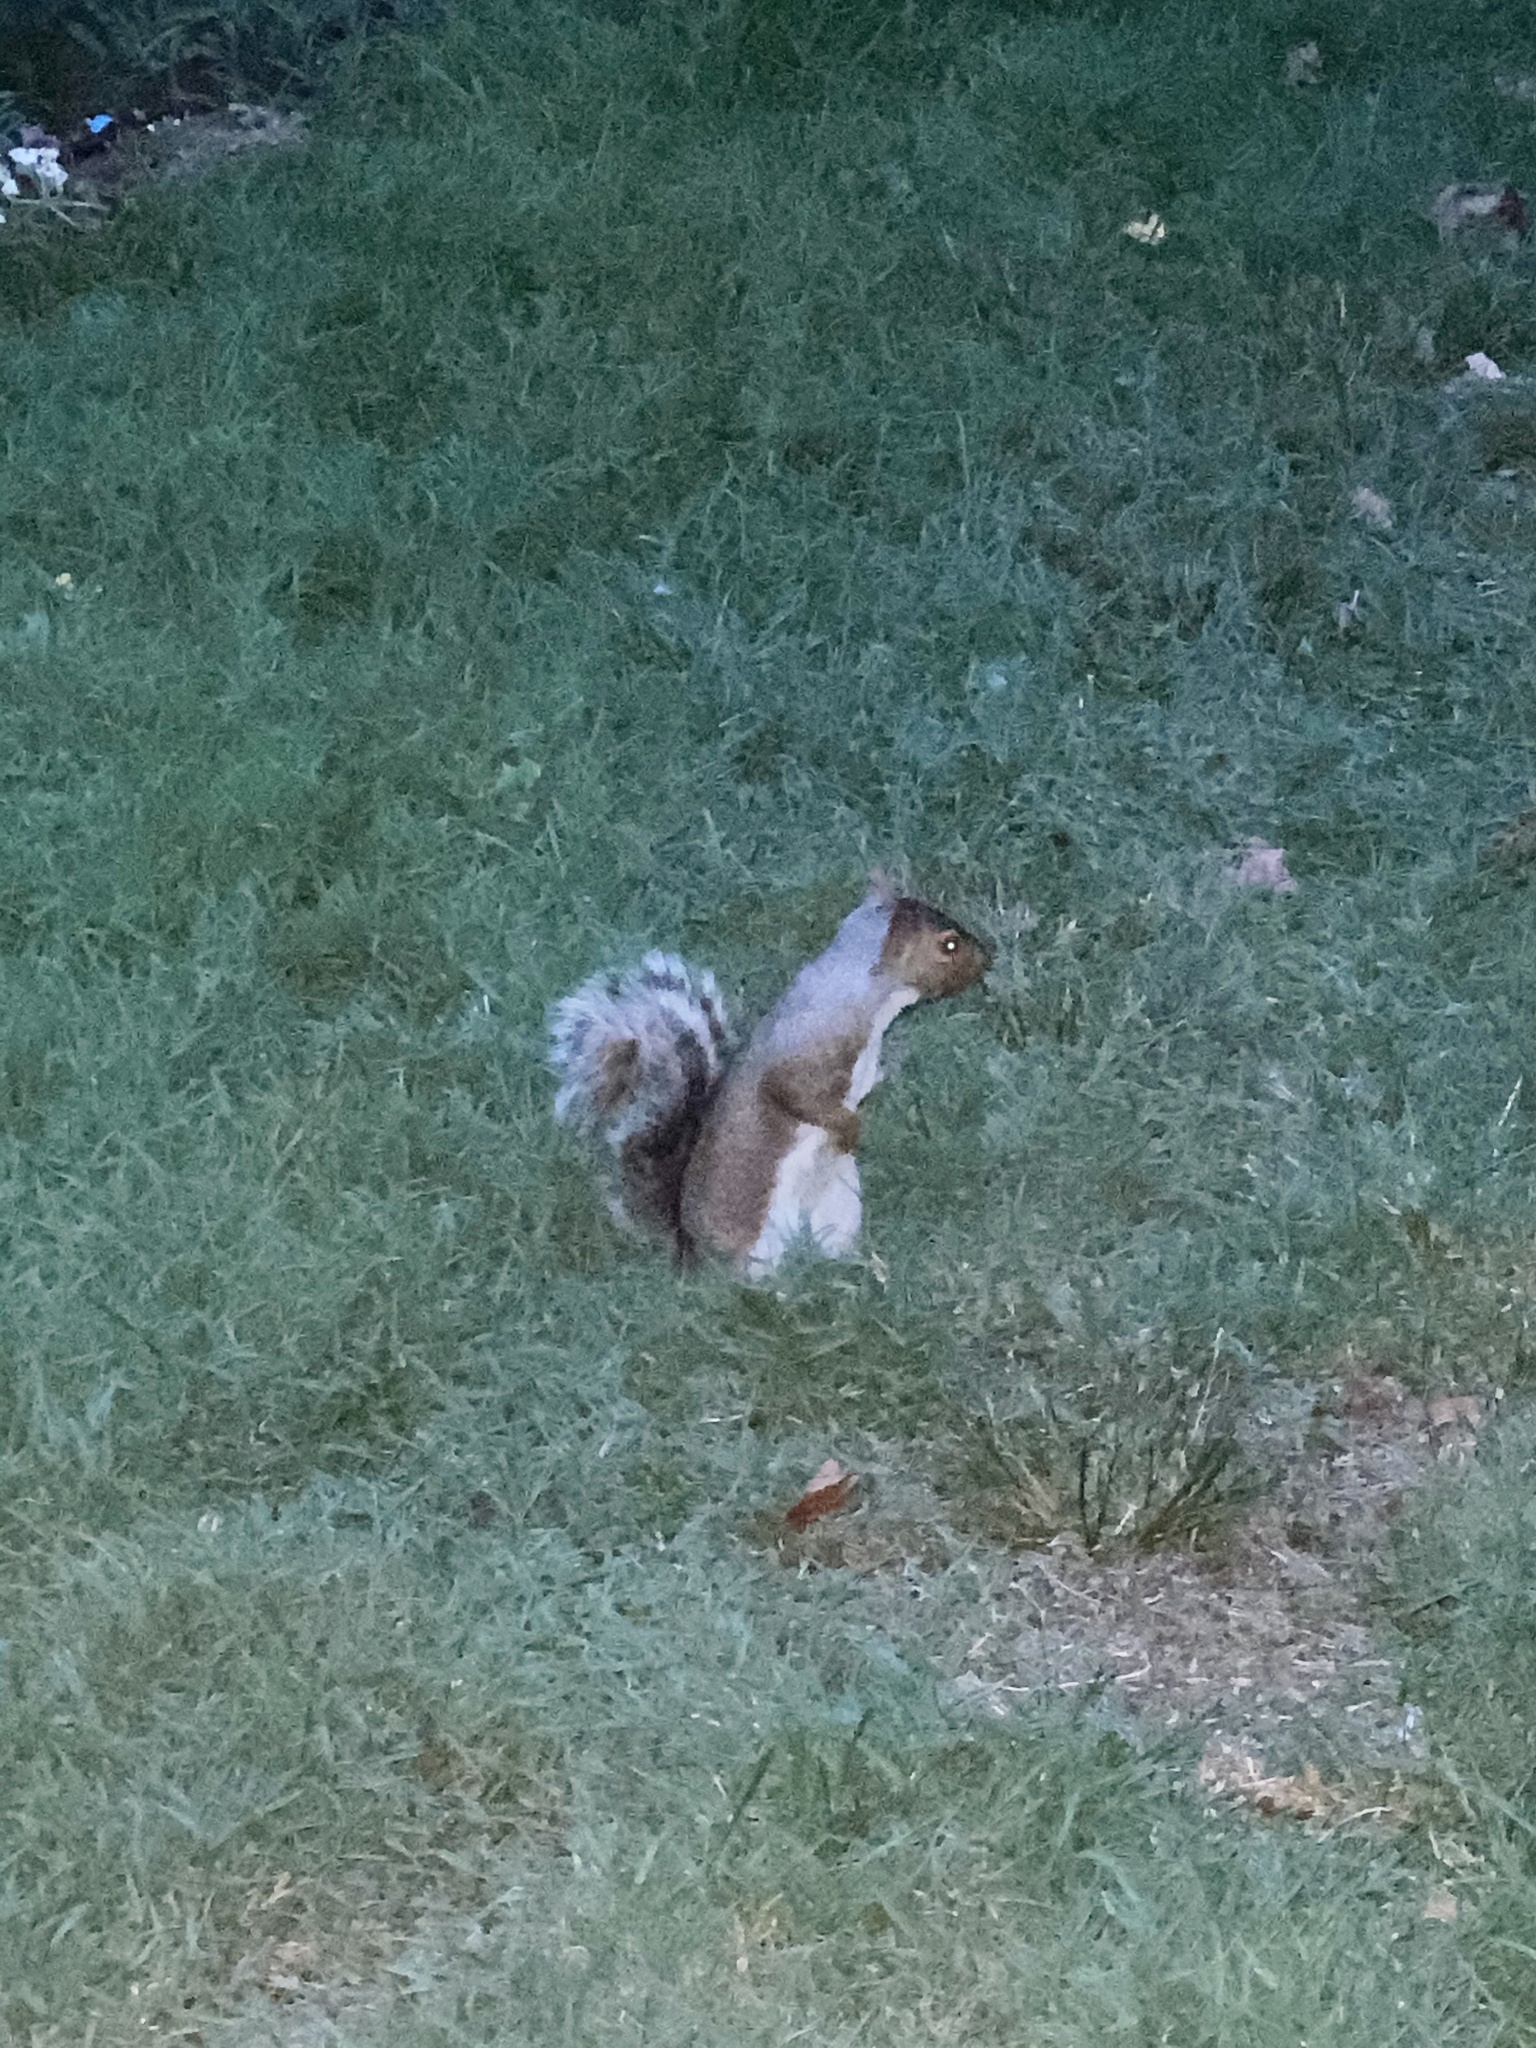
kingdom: Animalia
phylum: Chordata
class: Mammalia
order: Rodentia
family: Sciuridae
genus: Sciurus
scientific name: Sciurus carolinensis
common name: Eastern gray squirrel
